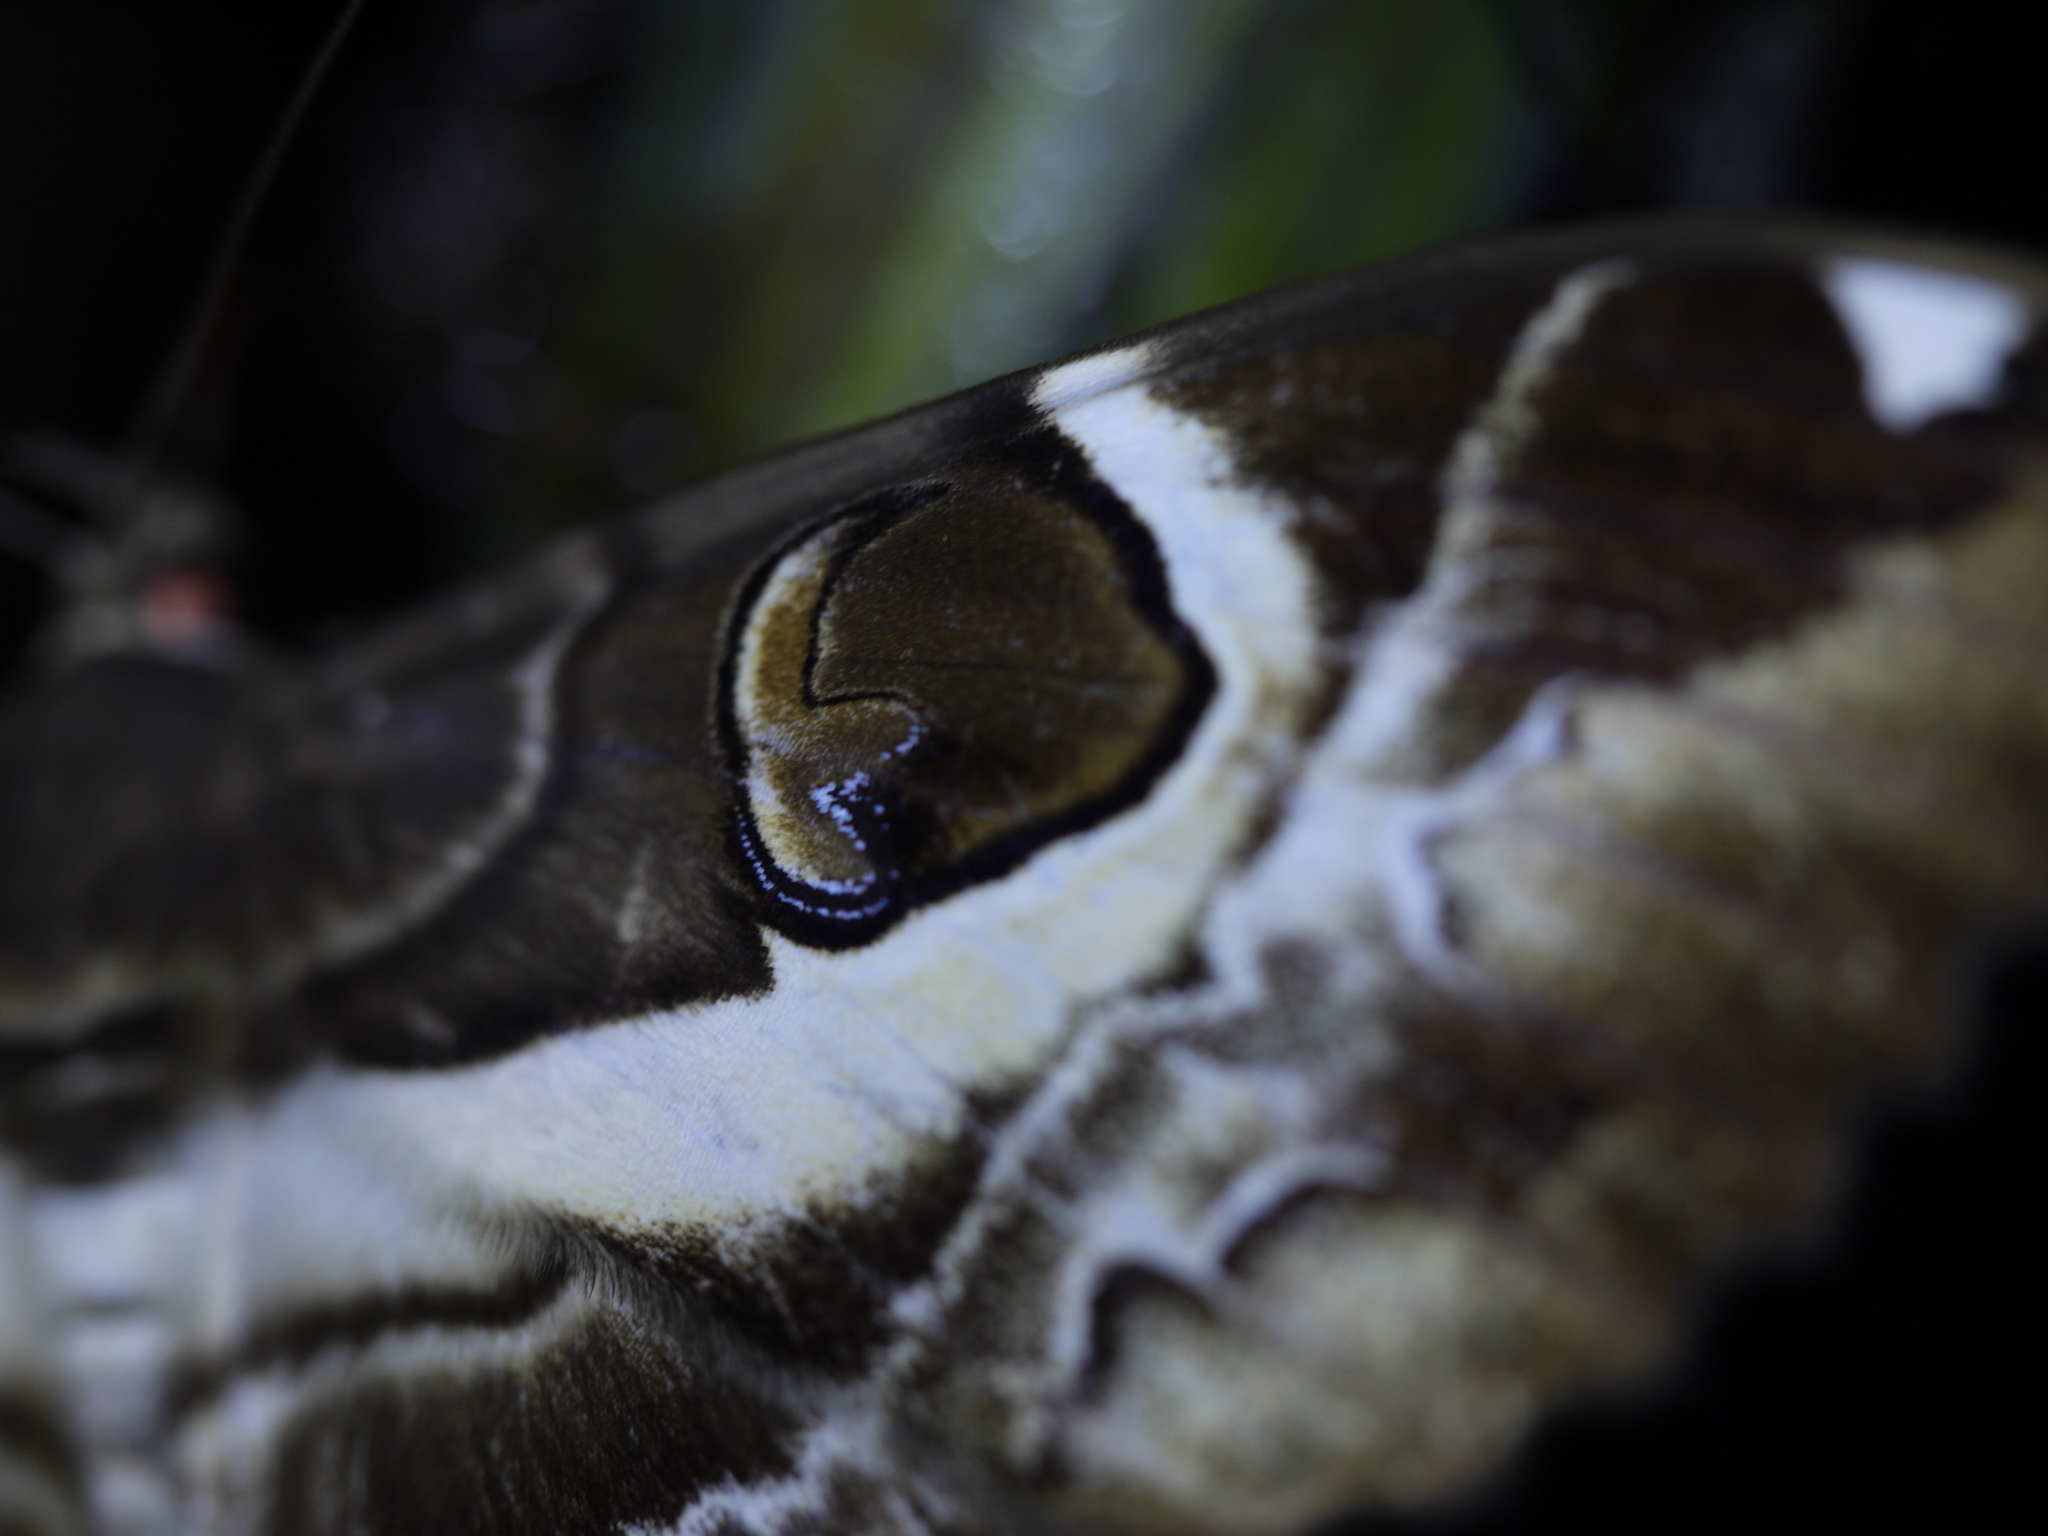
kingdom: Animalia
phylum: Arthropoda
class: Insecta
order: Lepidoptera
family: Erebidae
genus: Erebus
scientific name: Erebus ephesperis
